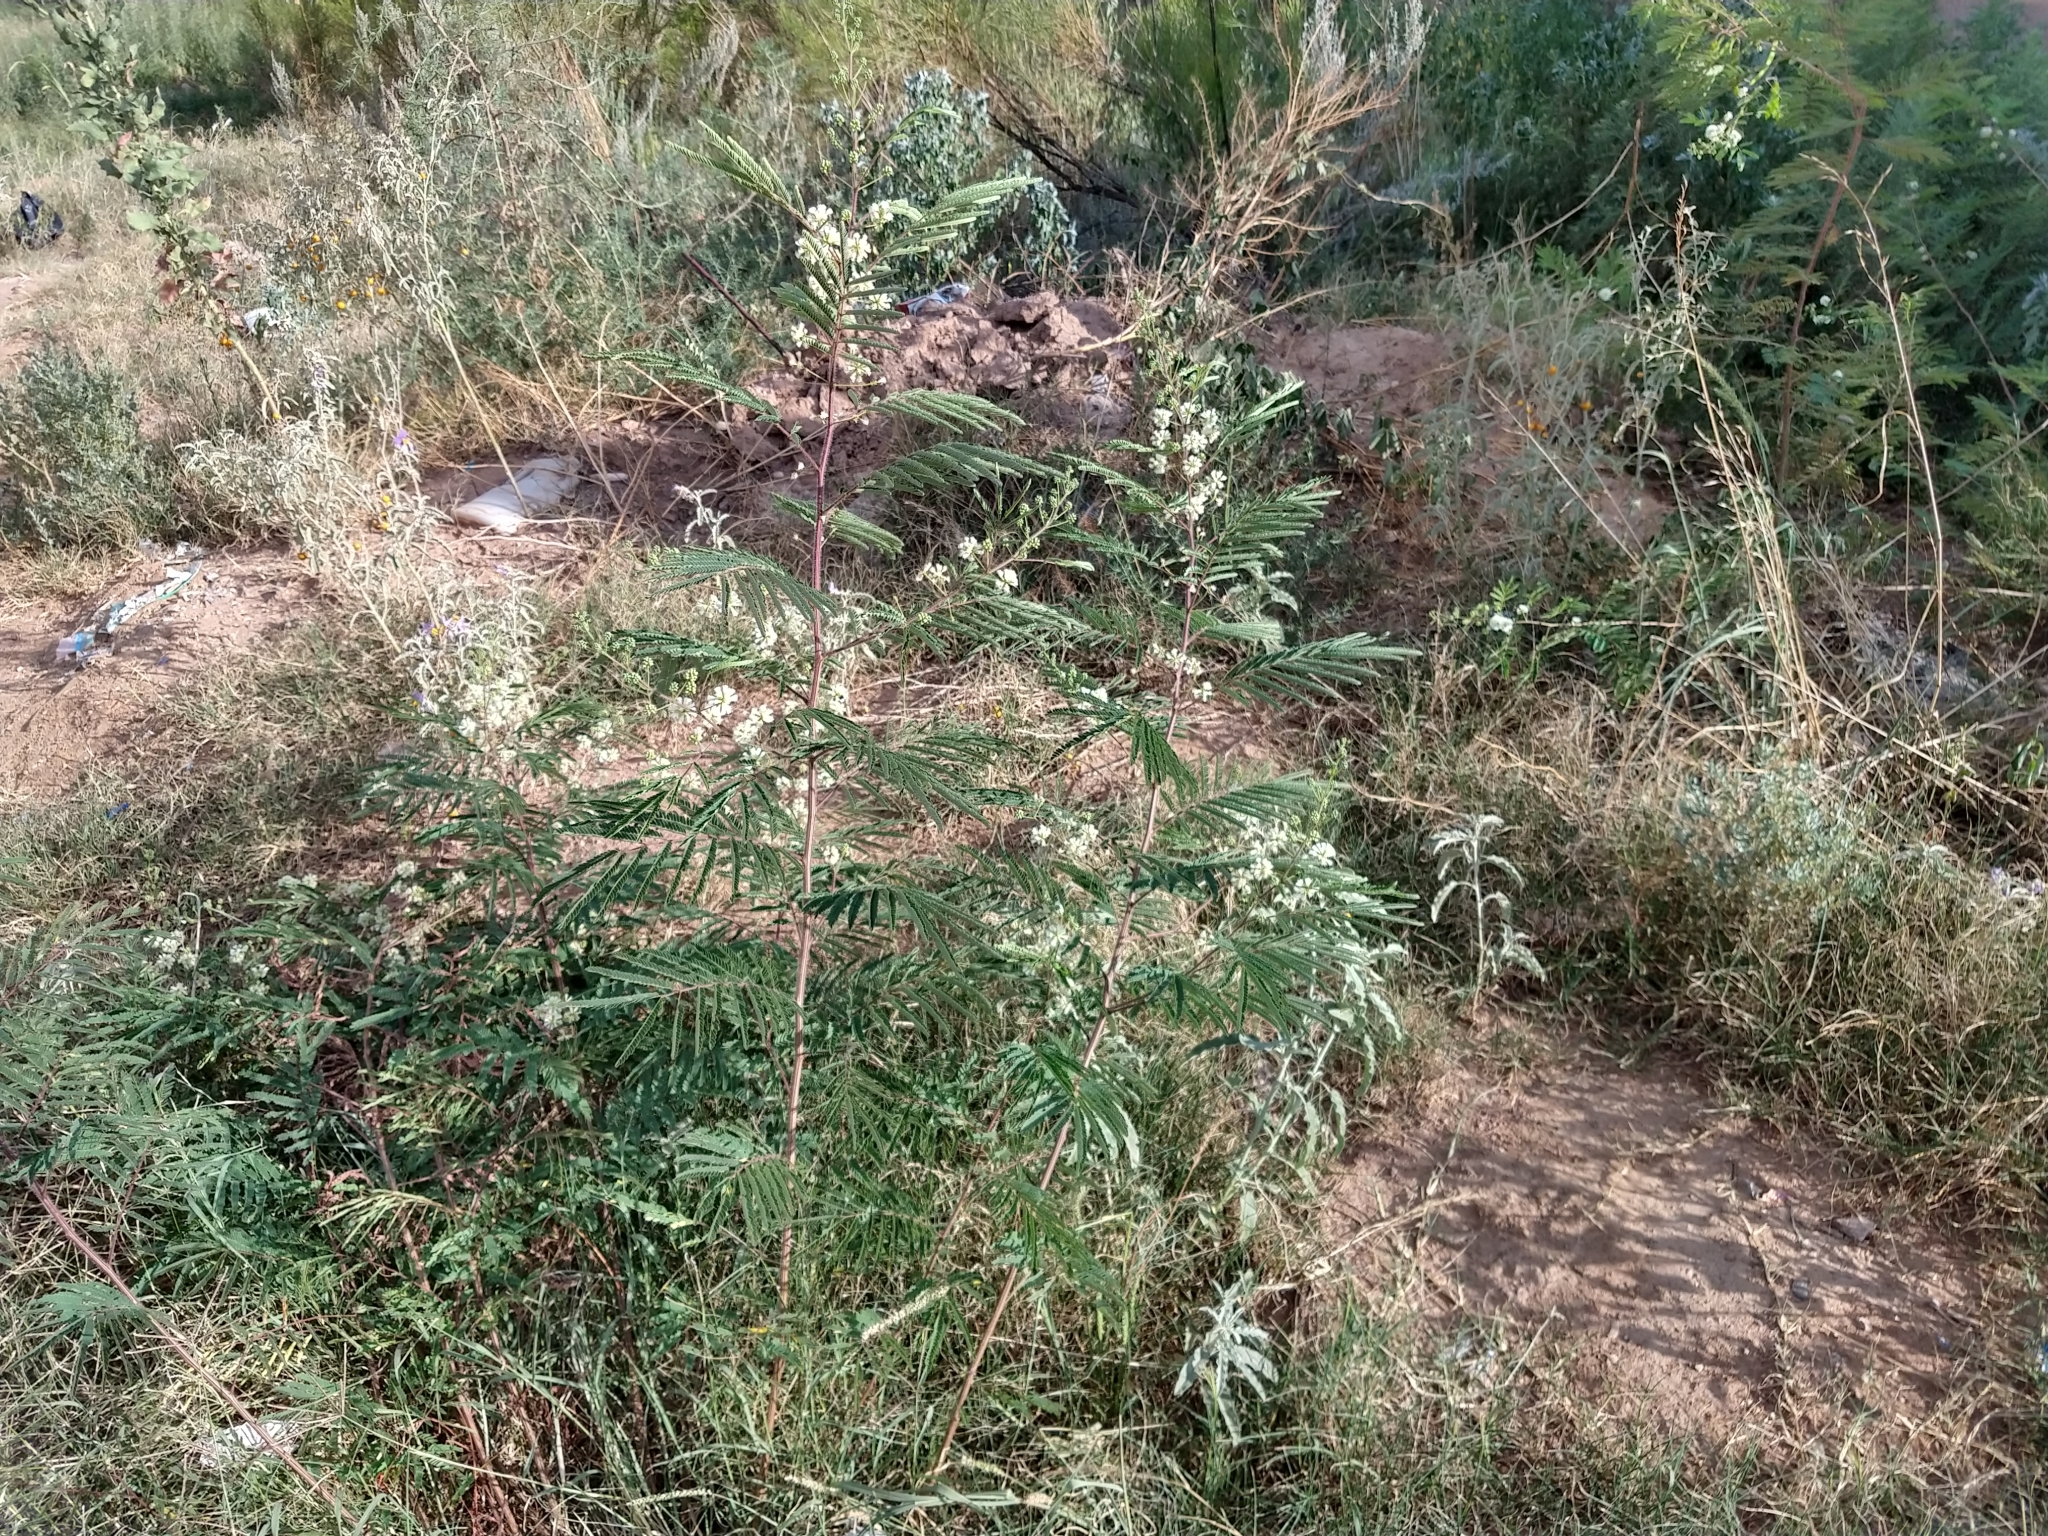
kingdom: Plantae
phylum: Tracheophyta
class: Magnoliopsida
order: Fabales
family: Fabaceae
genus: Acaciella
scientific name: Acaciella angustissima
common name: Prairie acacia
